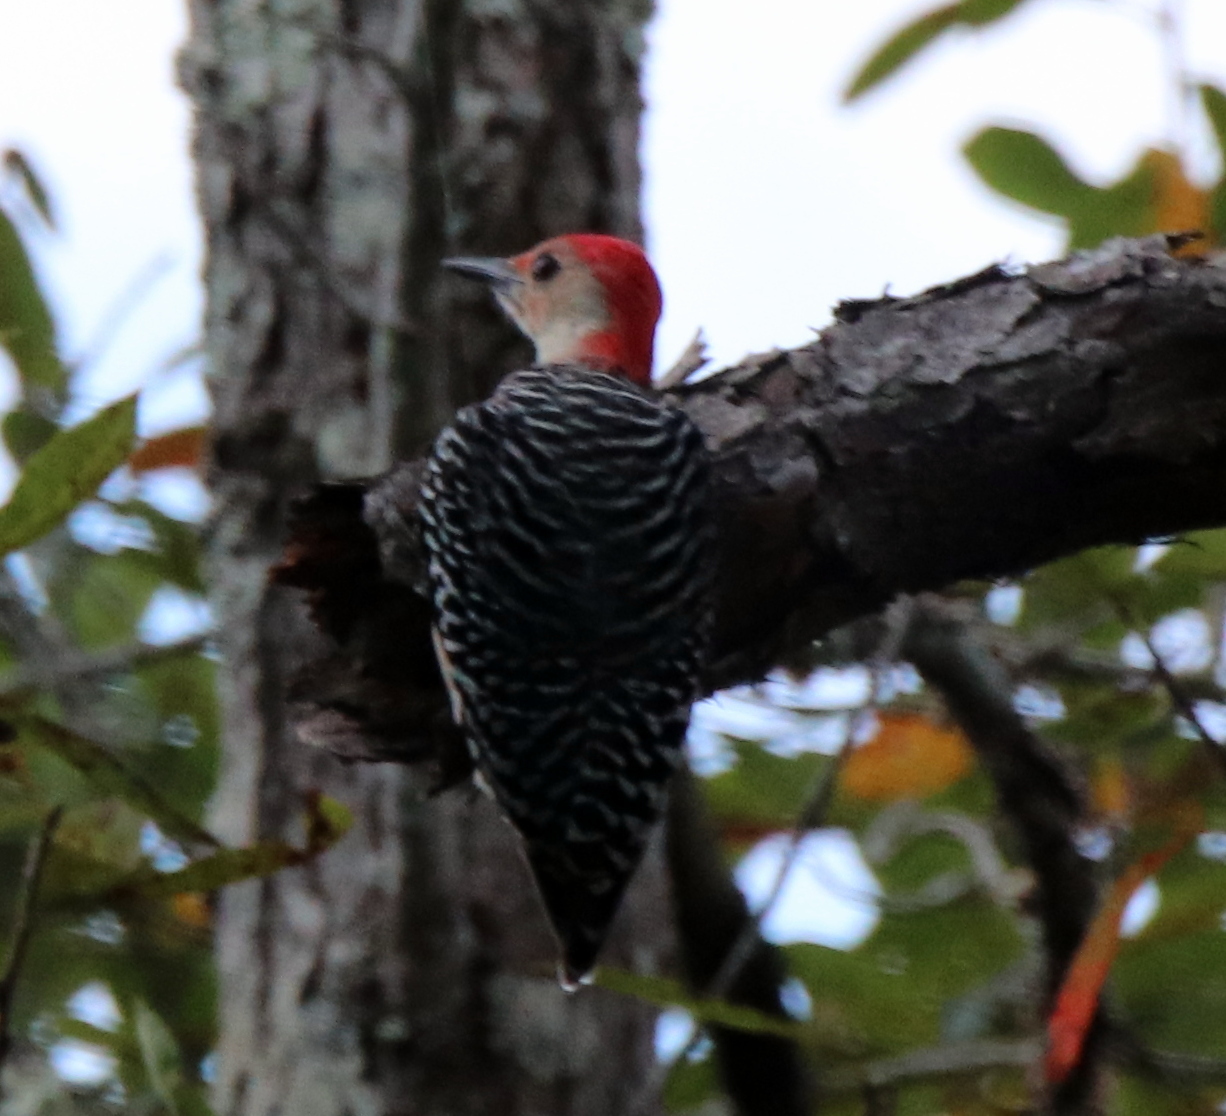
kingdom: Animalia
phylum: Chordata
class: Aves
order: Piciformes
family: Picidae
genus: Melanerpes
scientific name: Melanerpes carolinus
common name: Red-bellied woodpecker
